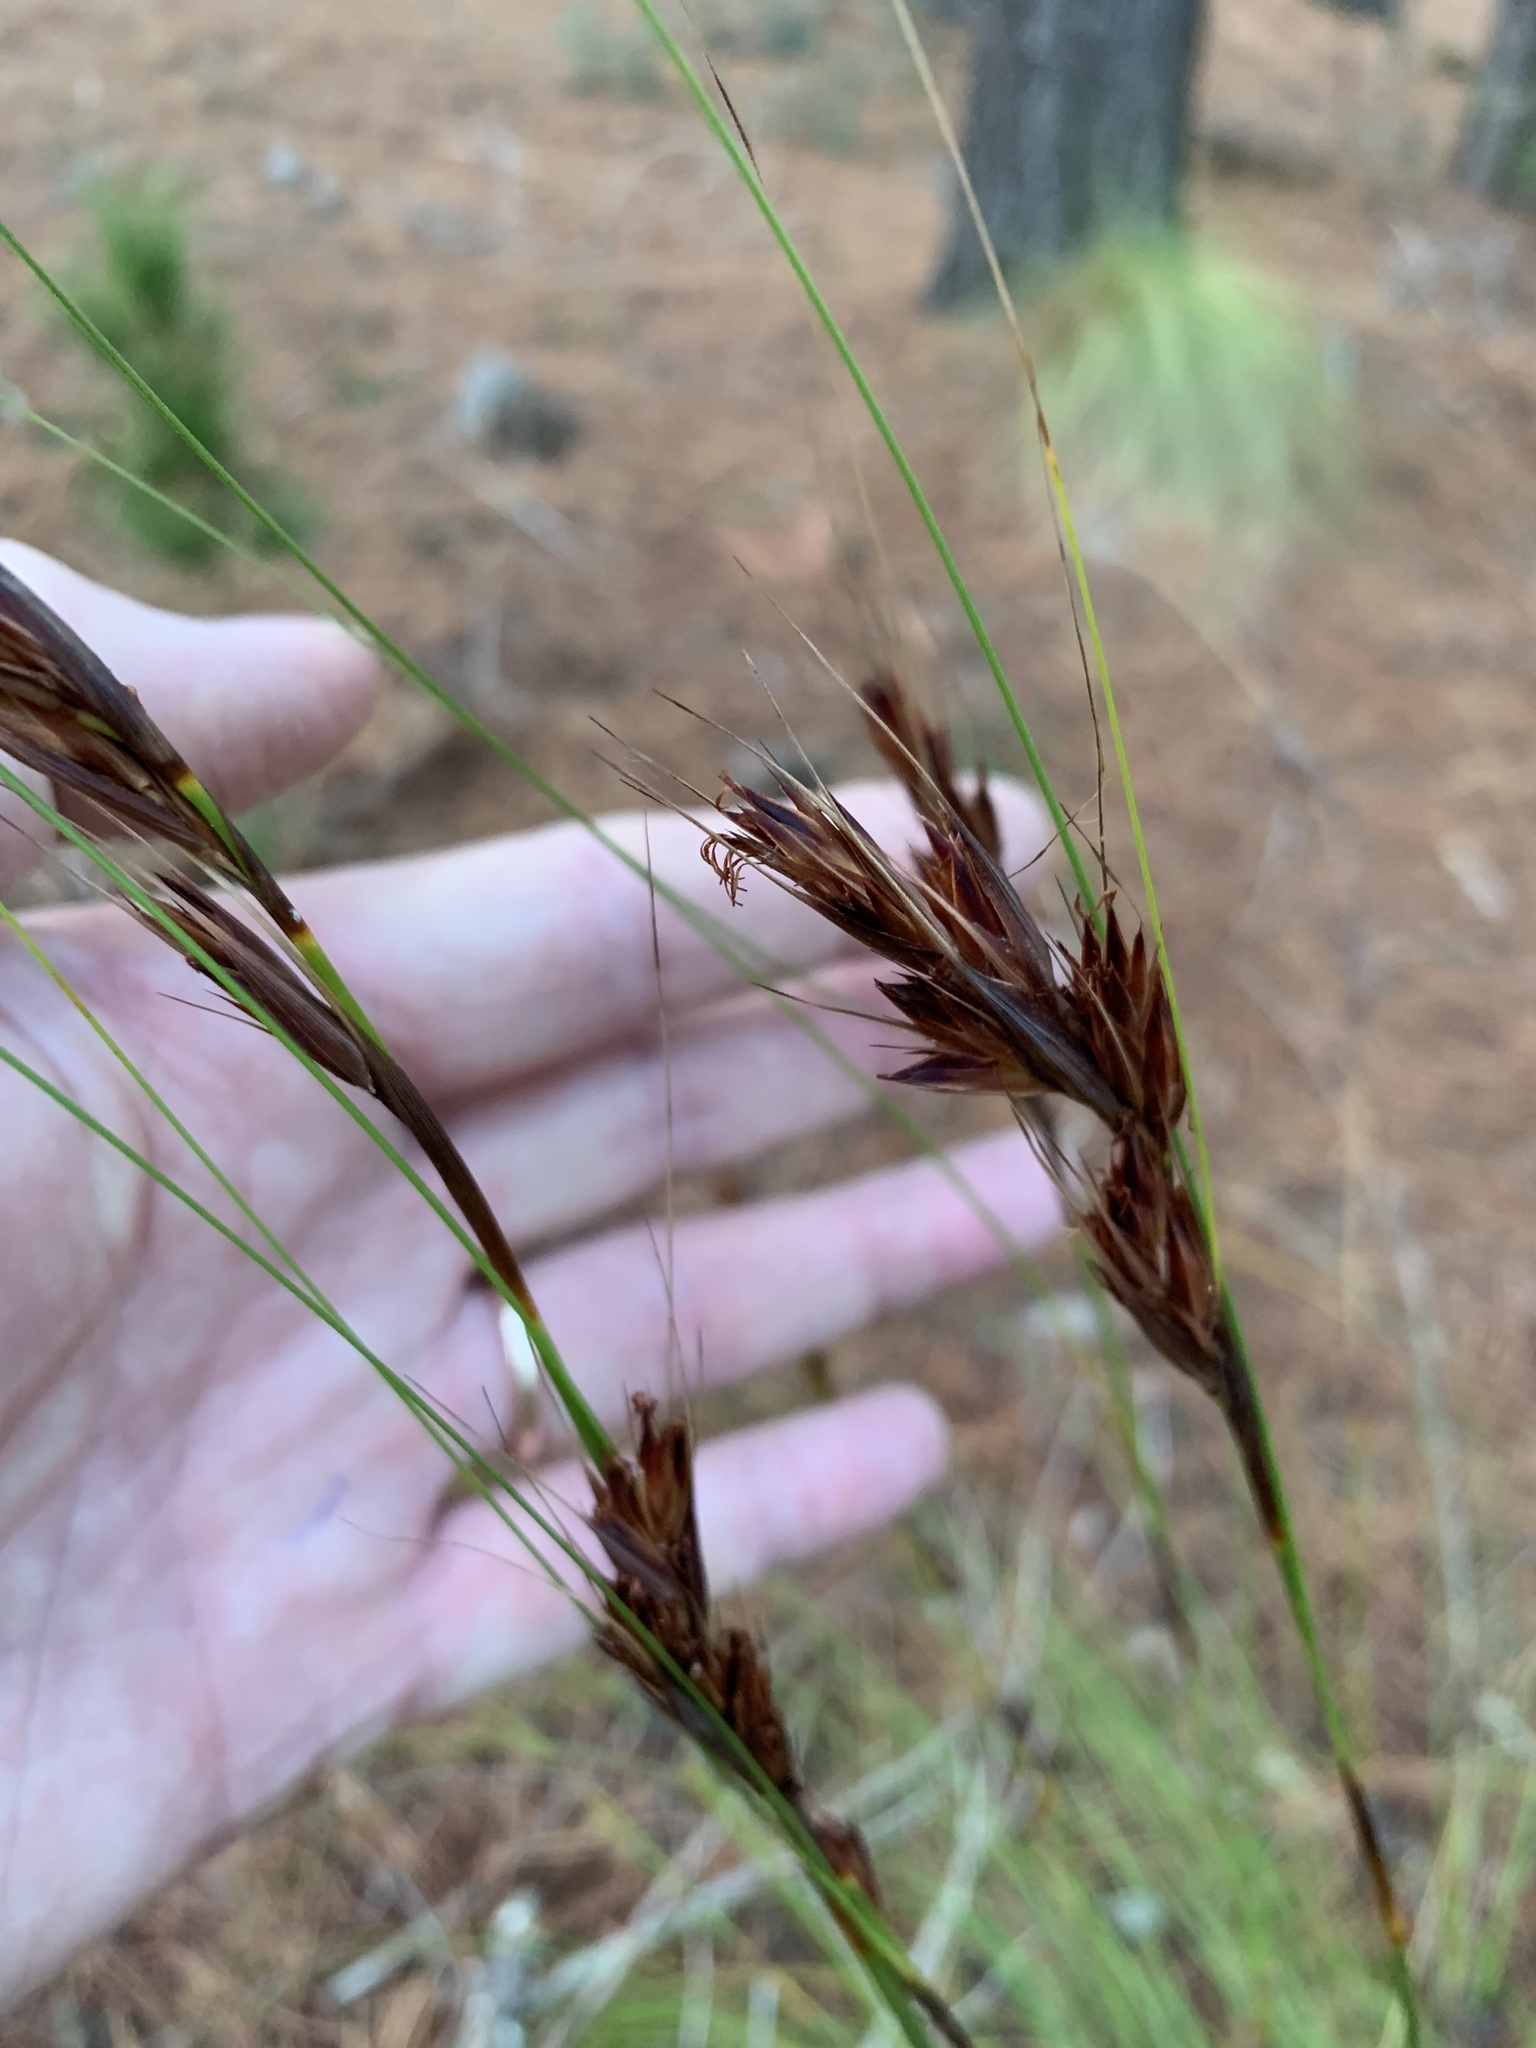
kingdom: Plantae
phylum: Tracheophyta
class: Liliopsida
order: Poales
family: Cyperaceae
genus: Tetraria
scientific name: Tetraria ustulata
